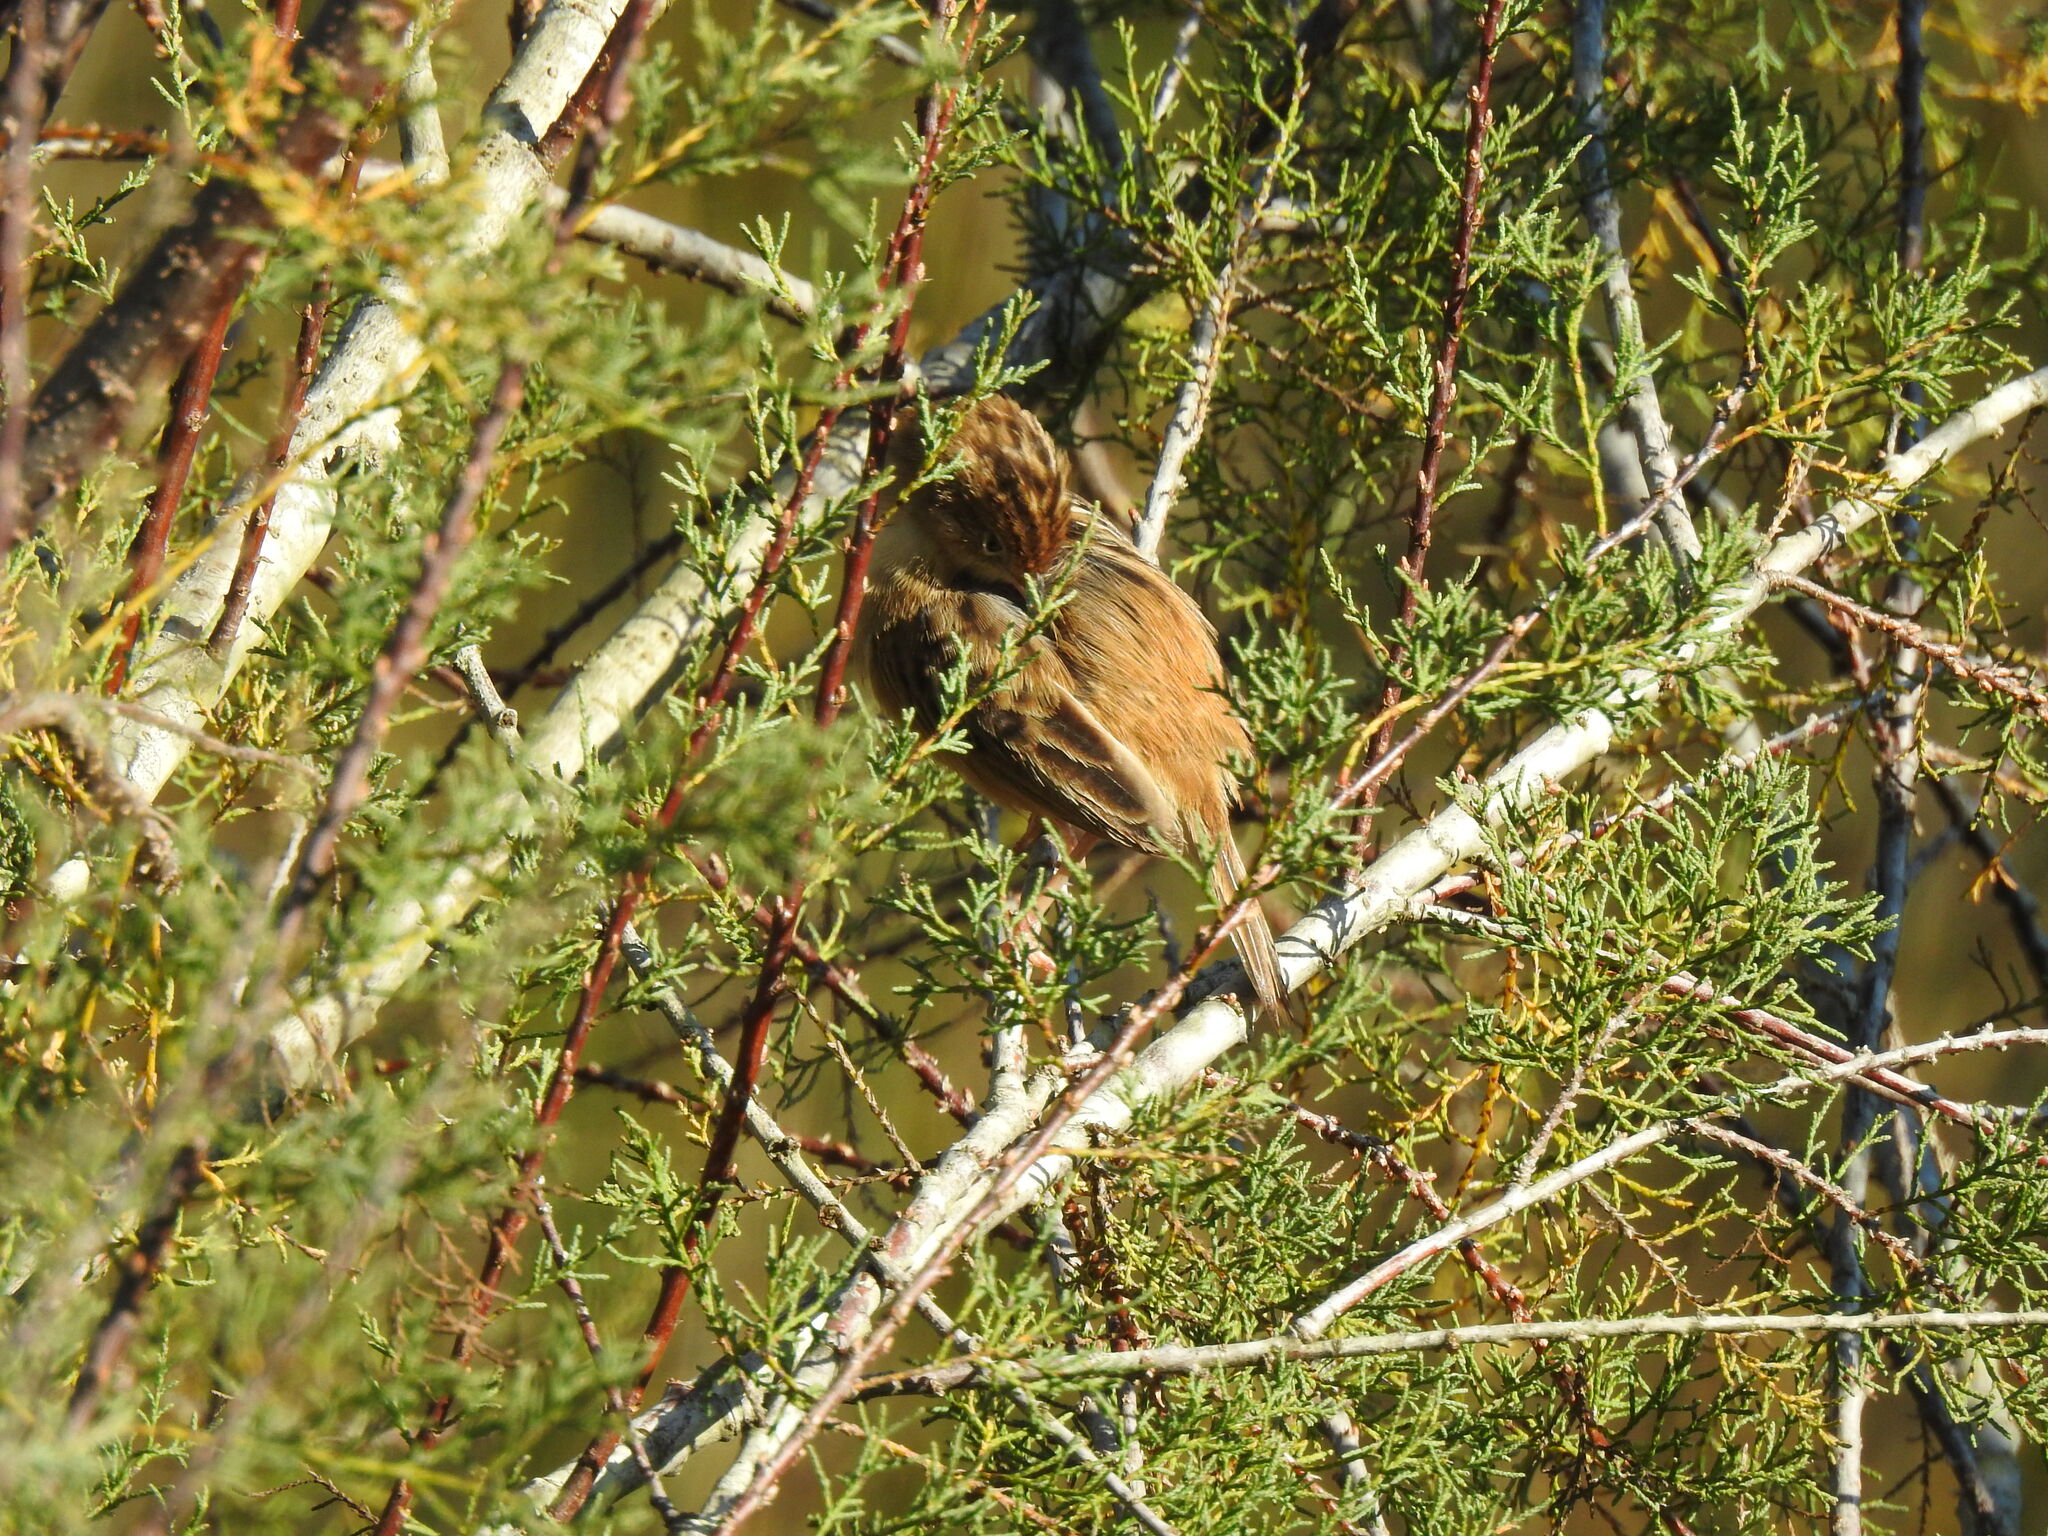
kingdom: Animalia
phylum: Chordata
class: Aves
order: Passeriformes
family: Cisticolidae
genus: Cisticola
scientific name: Cisticola juncidis
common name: Zitting cisticola
